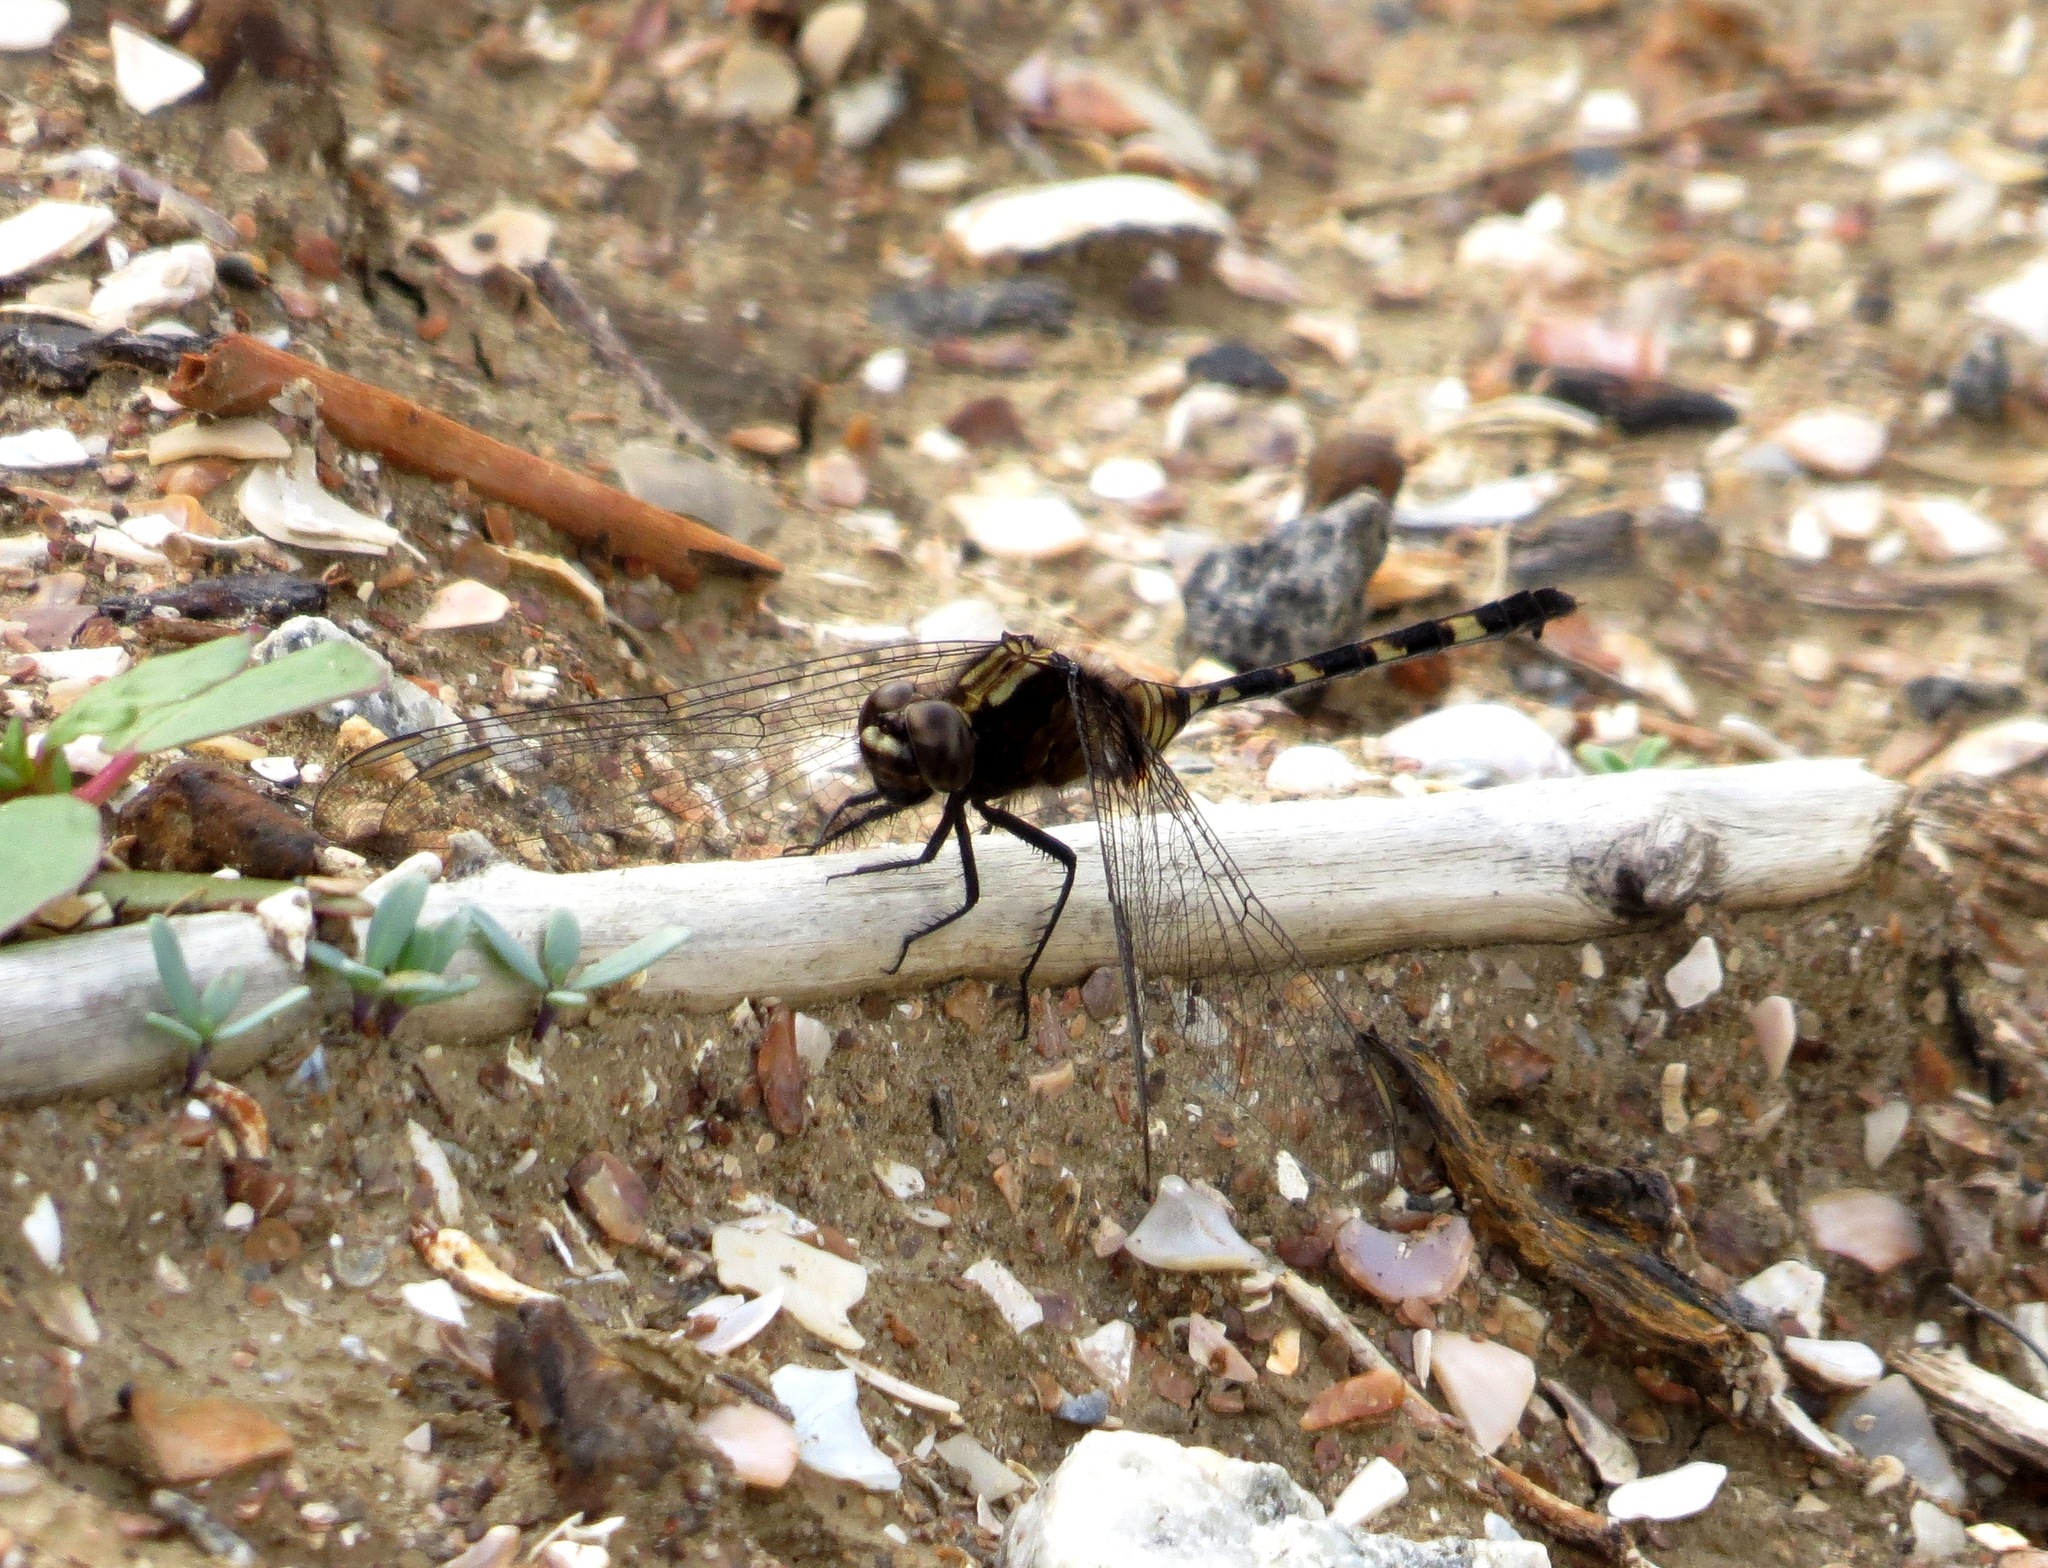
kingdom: Animalia
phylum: Arthropoda
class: Insecta
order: Odonata
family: Libellulidae
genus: Erythemis
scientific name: Erythemis plebeja
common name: Pin-tailed pondhawk
